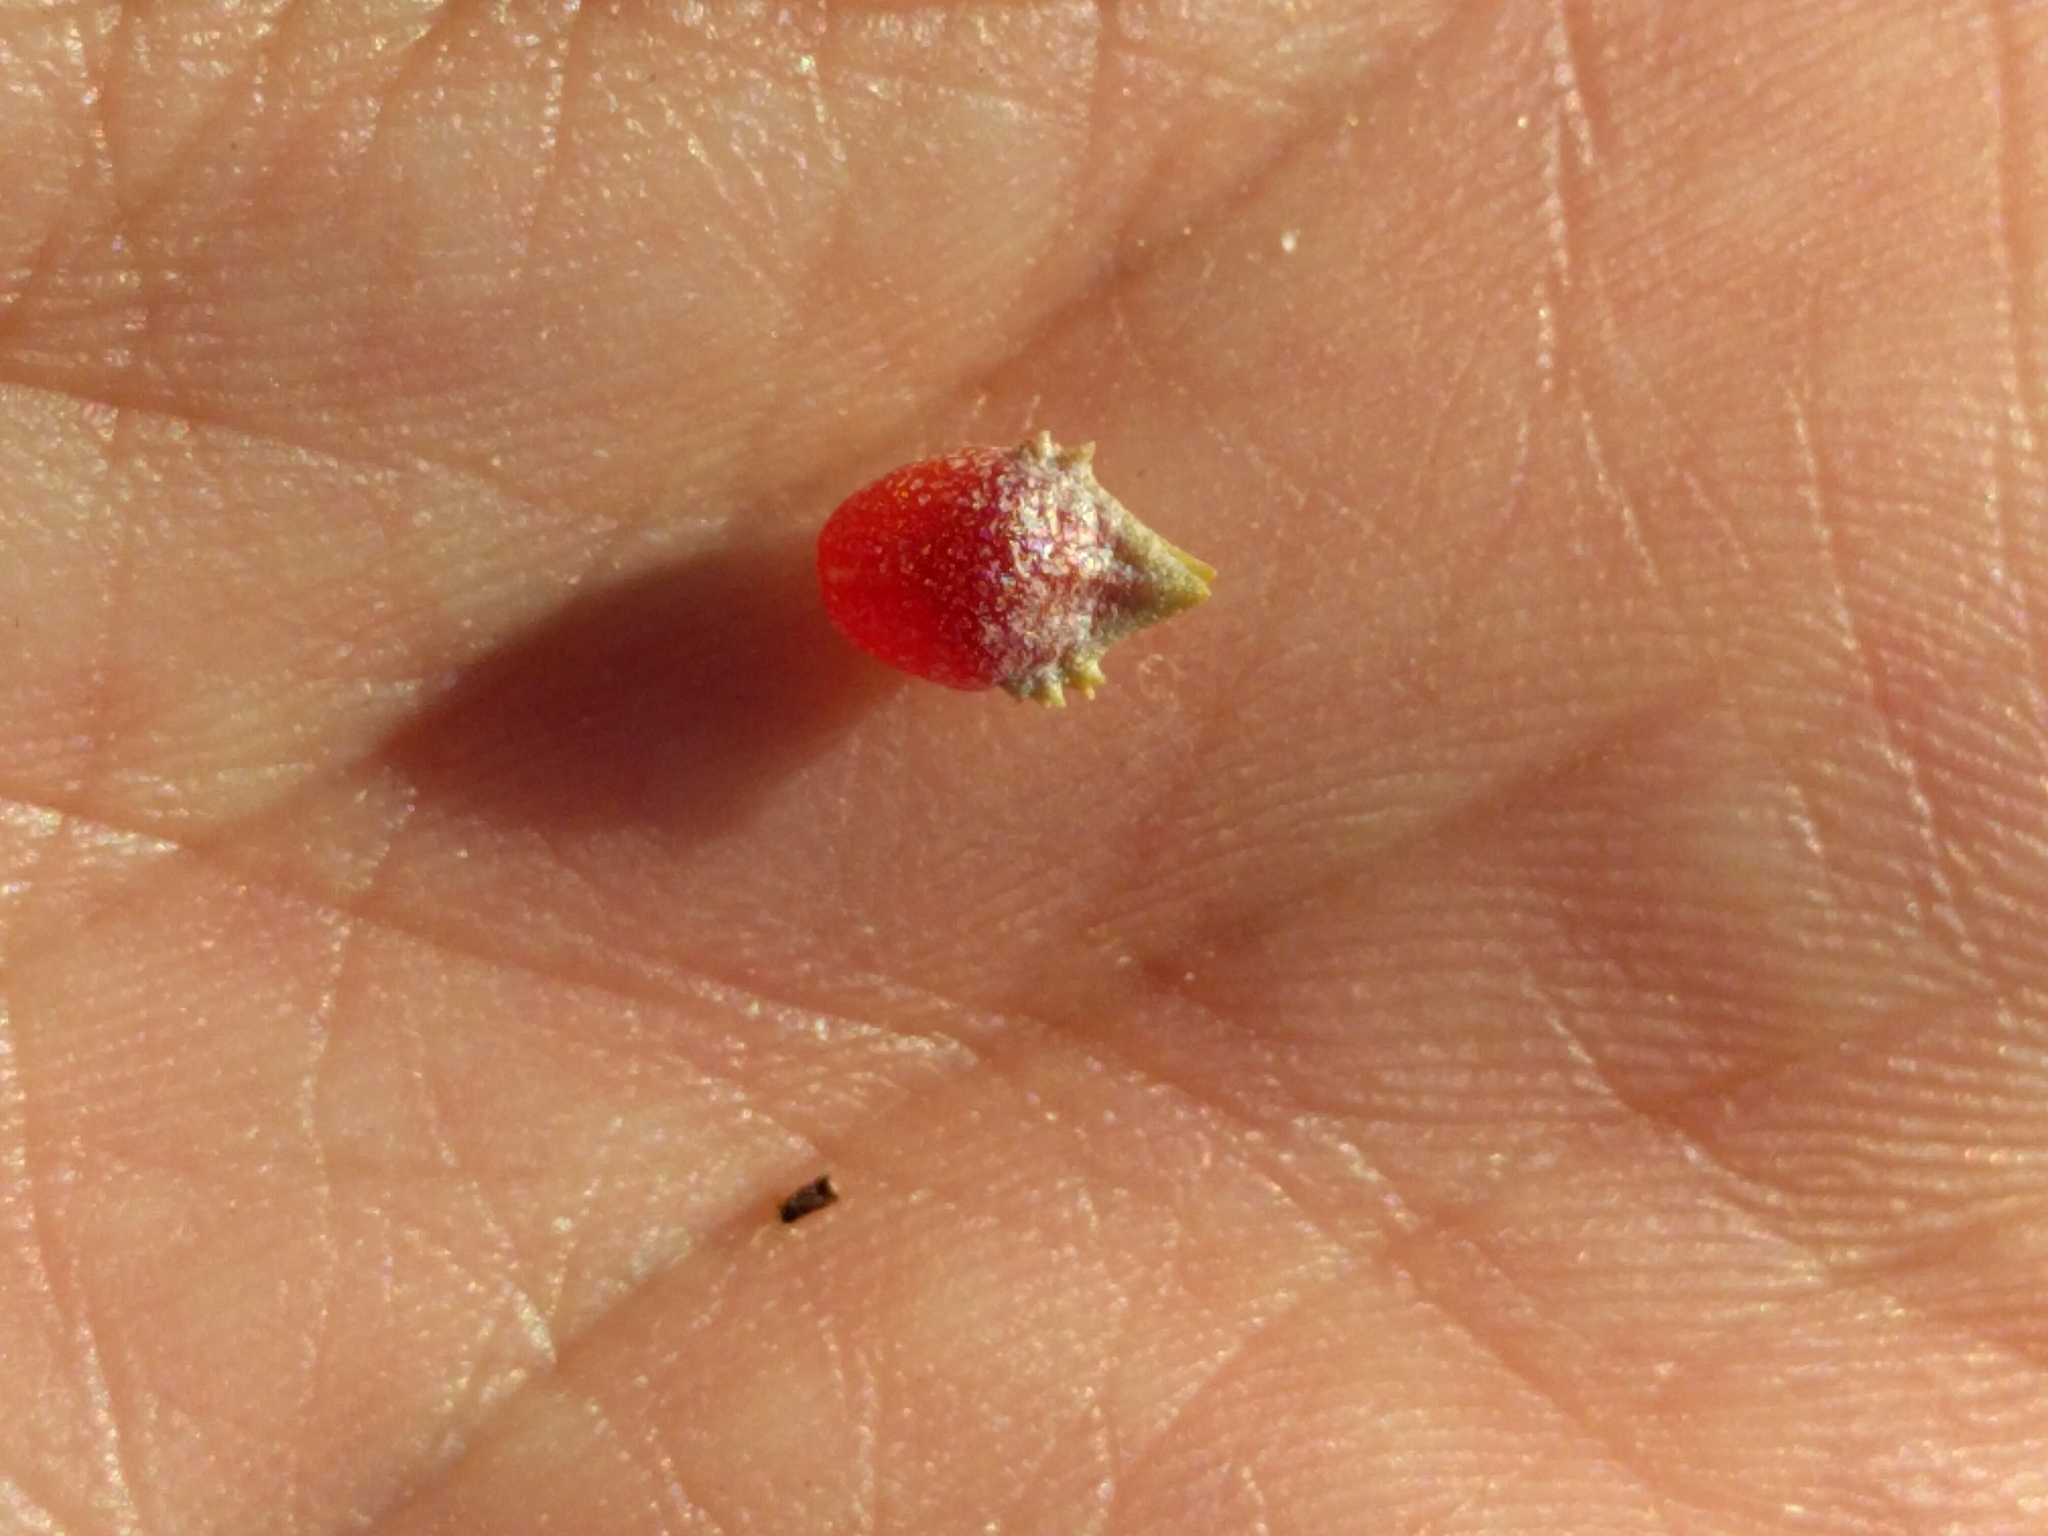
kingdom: Plantae
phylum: Tracheophyta
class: Magnoliopsida
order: Caryophyllales
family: Amaranthaceae
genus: Atriplex
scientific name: Atriplex semibaccata
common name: Australian saltbush
